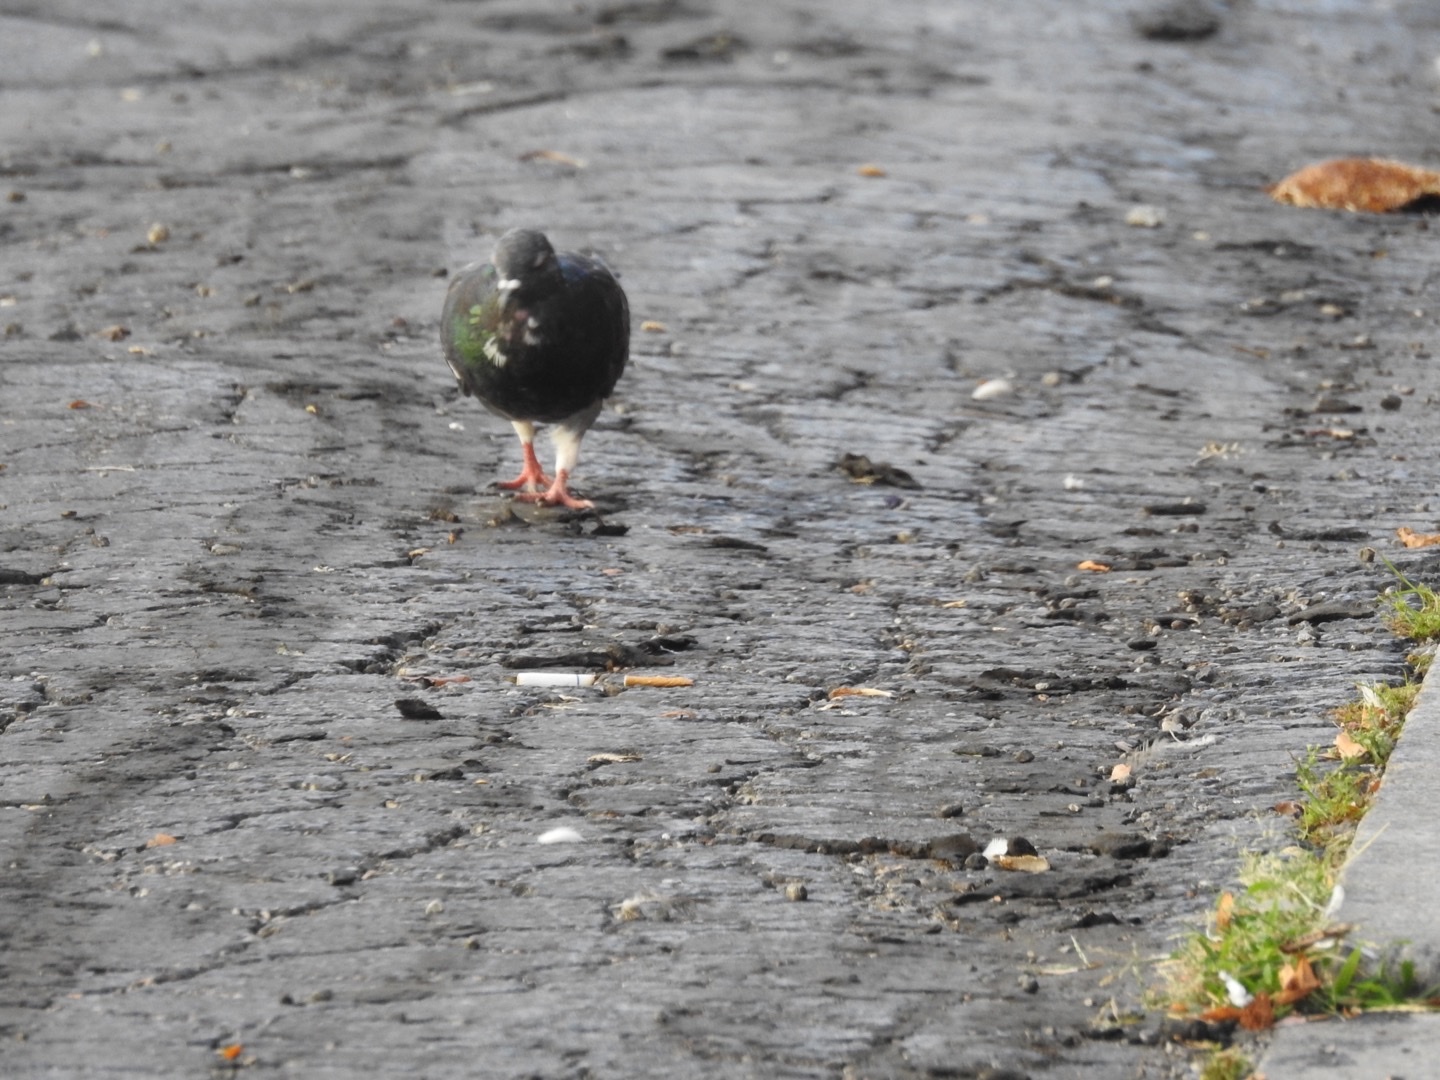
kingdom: Animalia
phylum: Chordata
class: Aves
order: Columbiformes
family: Columbidae
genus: Columba
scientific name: Columba livia
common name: Rock pigeon
